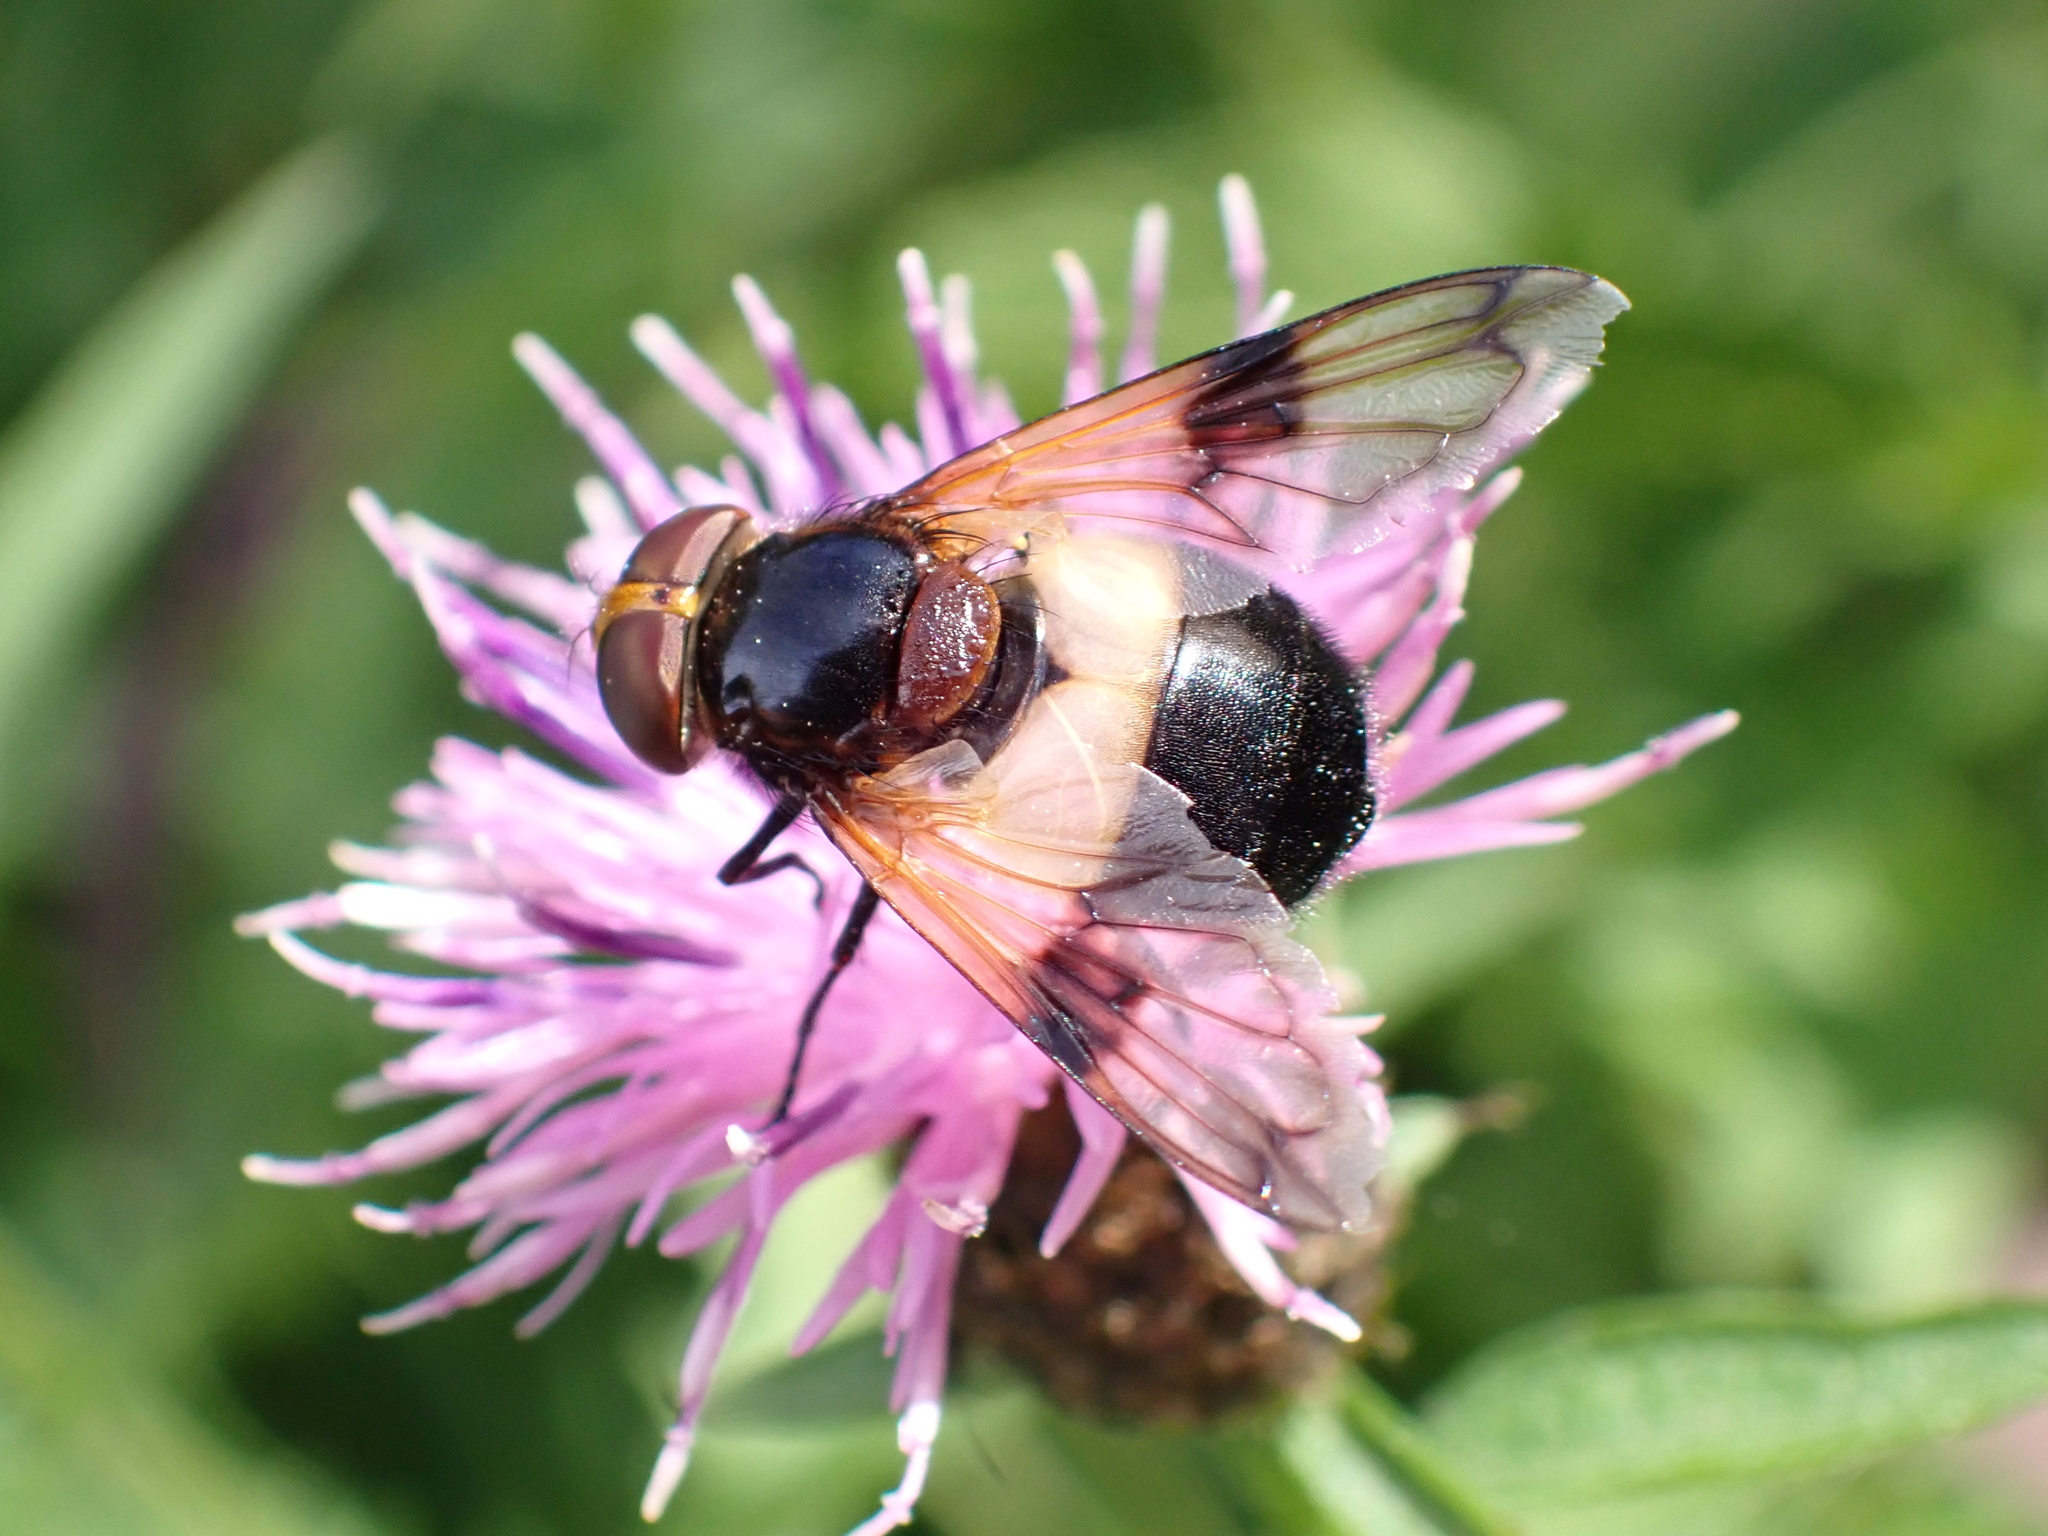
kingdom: Animalia
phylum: Arthropoda
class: Insecta
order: Diptera
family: Syrphidae
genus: Volucella
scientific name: Volucella pellucens
